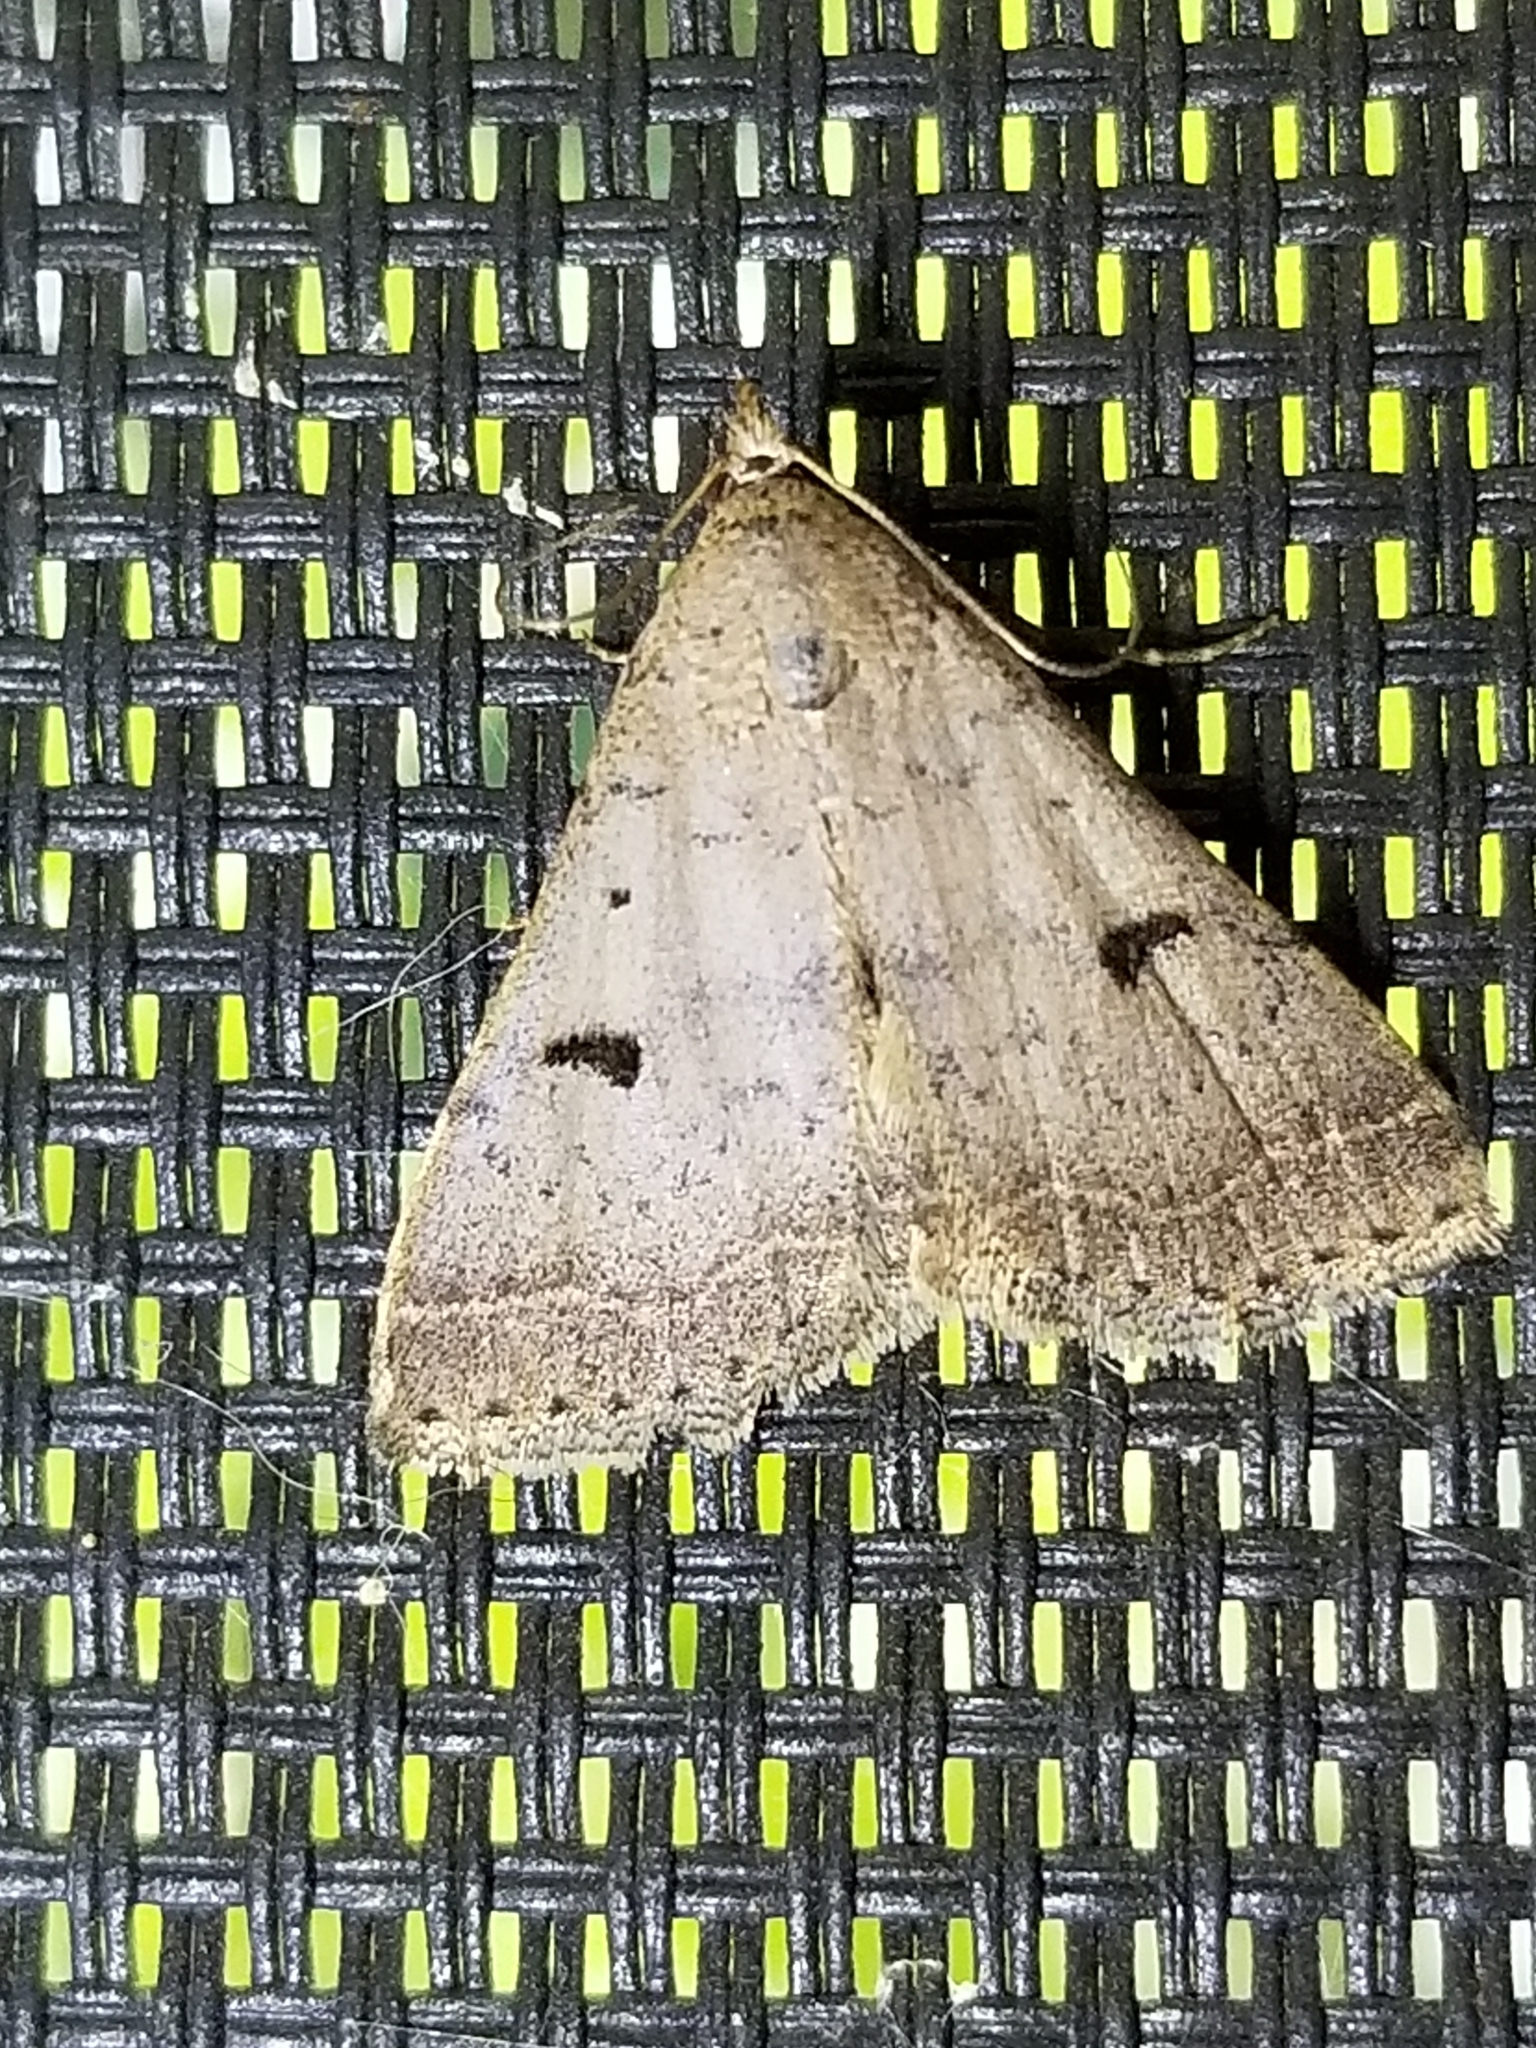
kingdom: Animalia
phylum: Arthropoda
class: Insecta
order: Lepidoptera
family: Erebidae
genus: Bleptina
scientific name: Bleptina caradrinalis
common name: Bent-winged owlet
